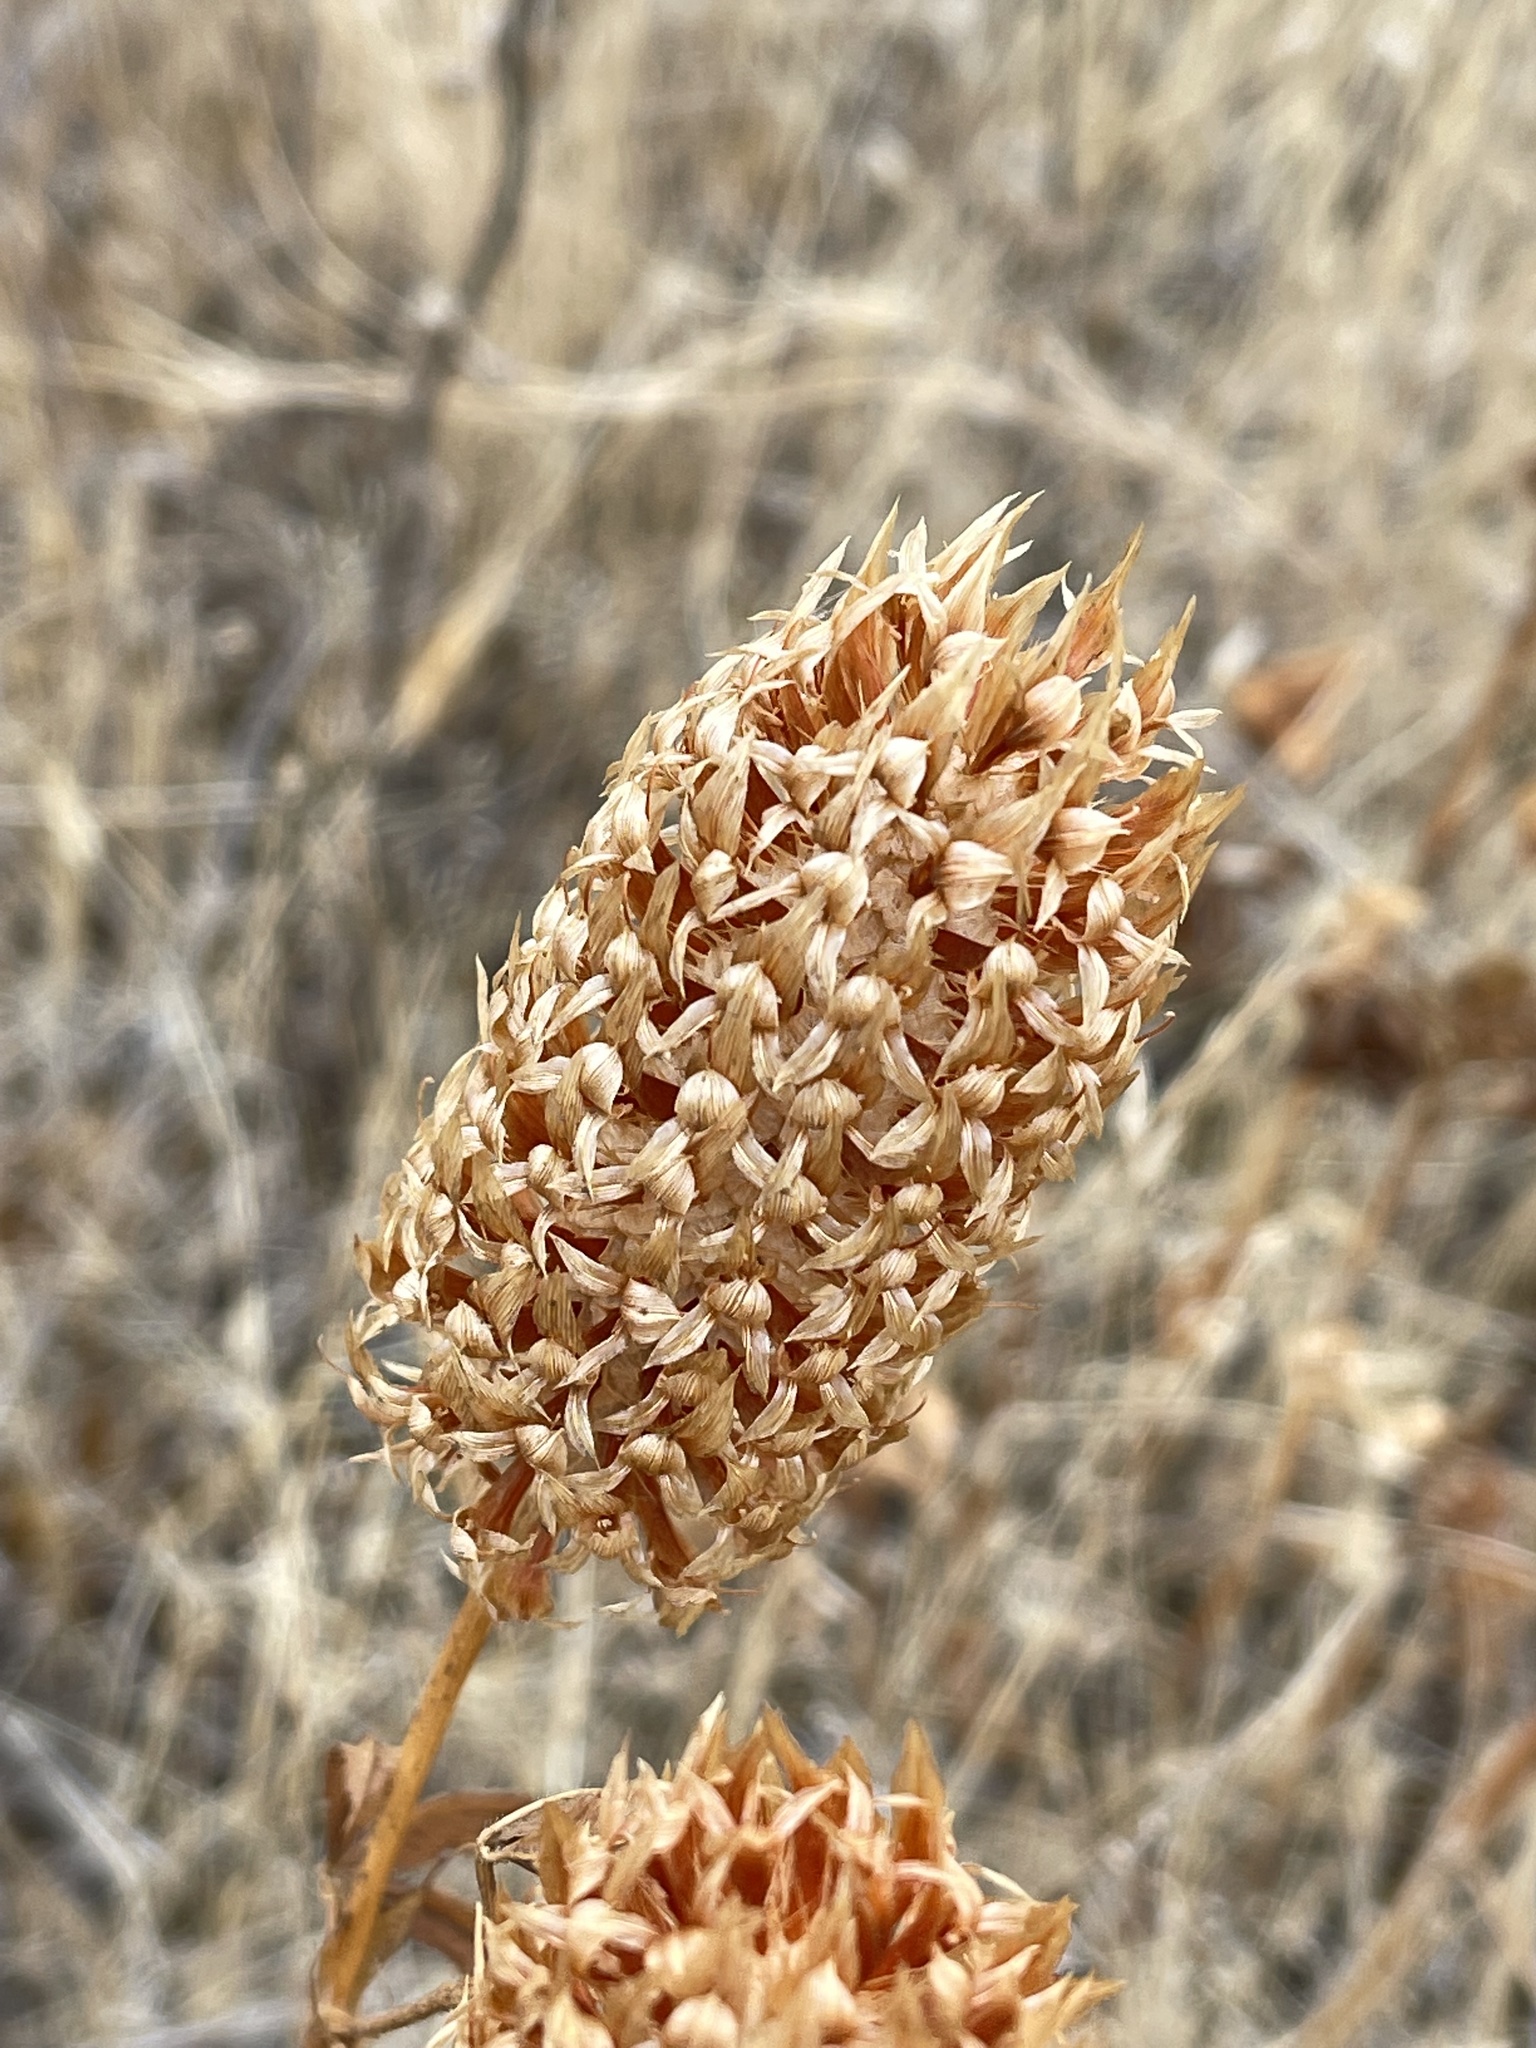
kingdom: Plantae
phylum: Tracheophyta
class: Magnoliopsida
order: Fabales
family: Fabaceae
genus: Trifolium
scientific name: Trifolium vesiculosum
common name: Arrowleaf clover
